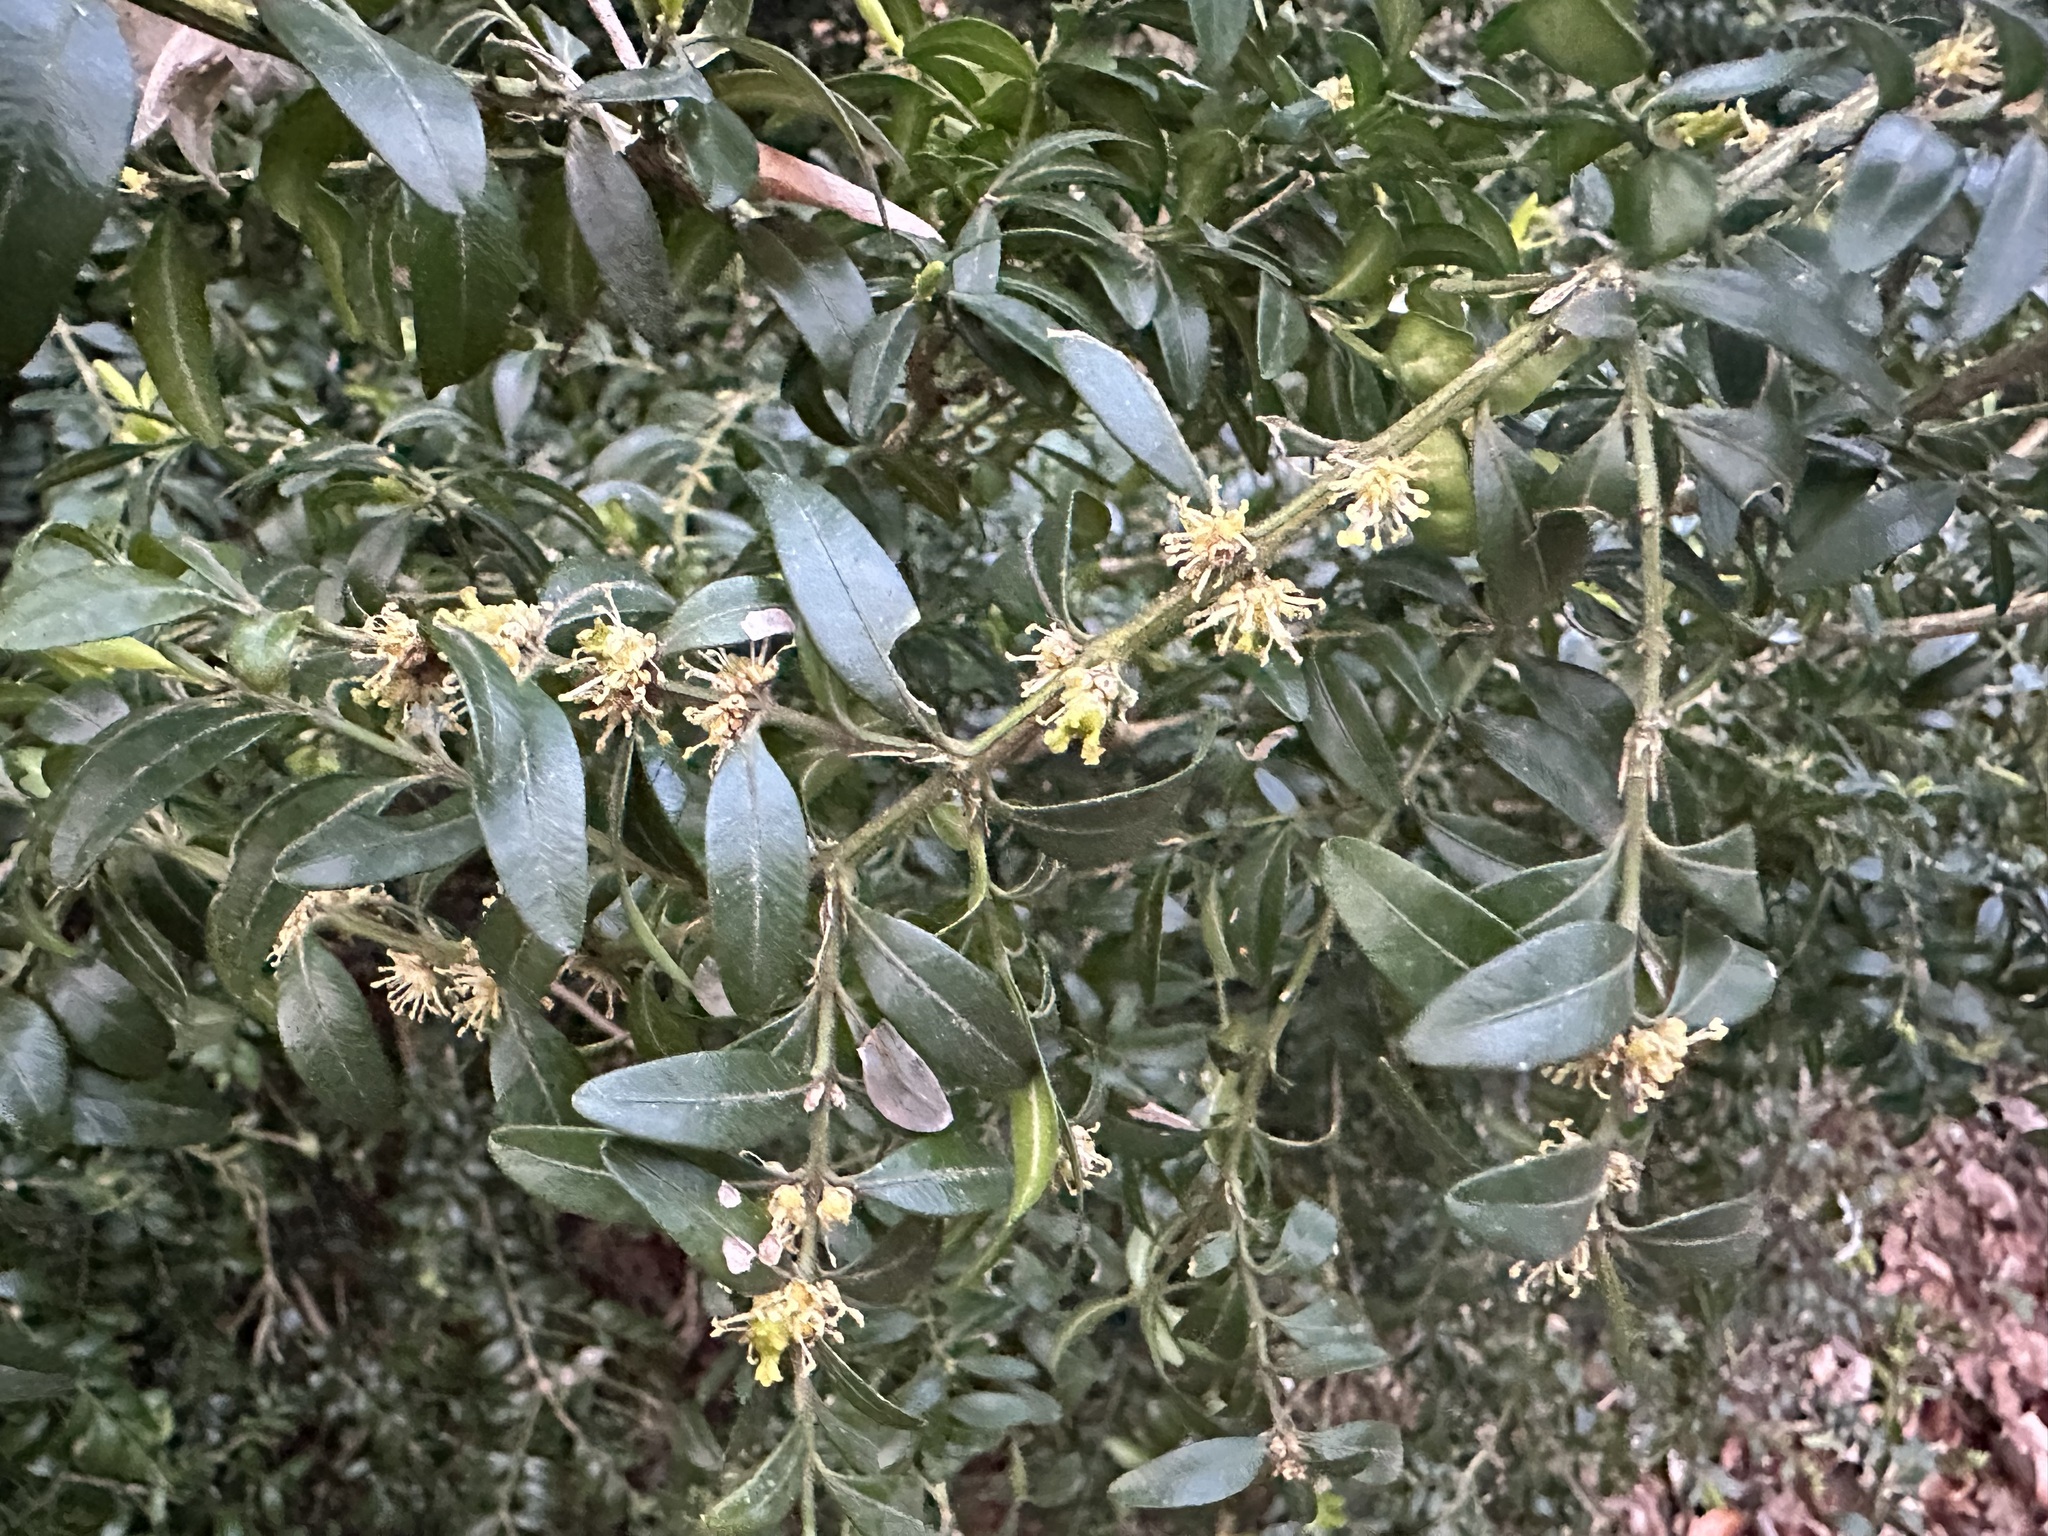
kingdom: Plantae
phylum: Tracheophyta
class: Magnoliopsida
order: Buxales
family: Buxaceae
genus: Buxus
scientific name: Buxus sempervirens
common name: Box
